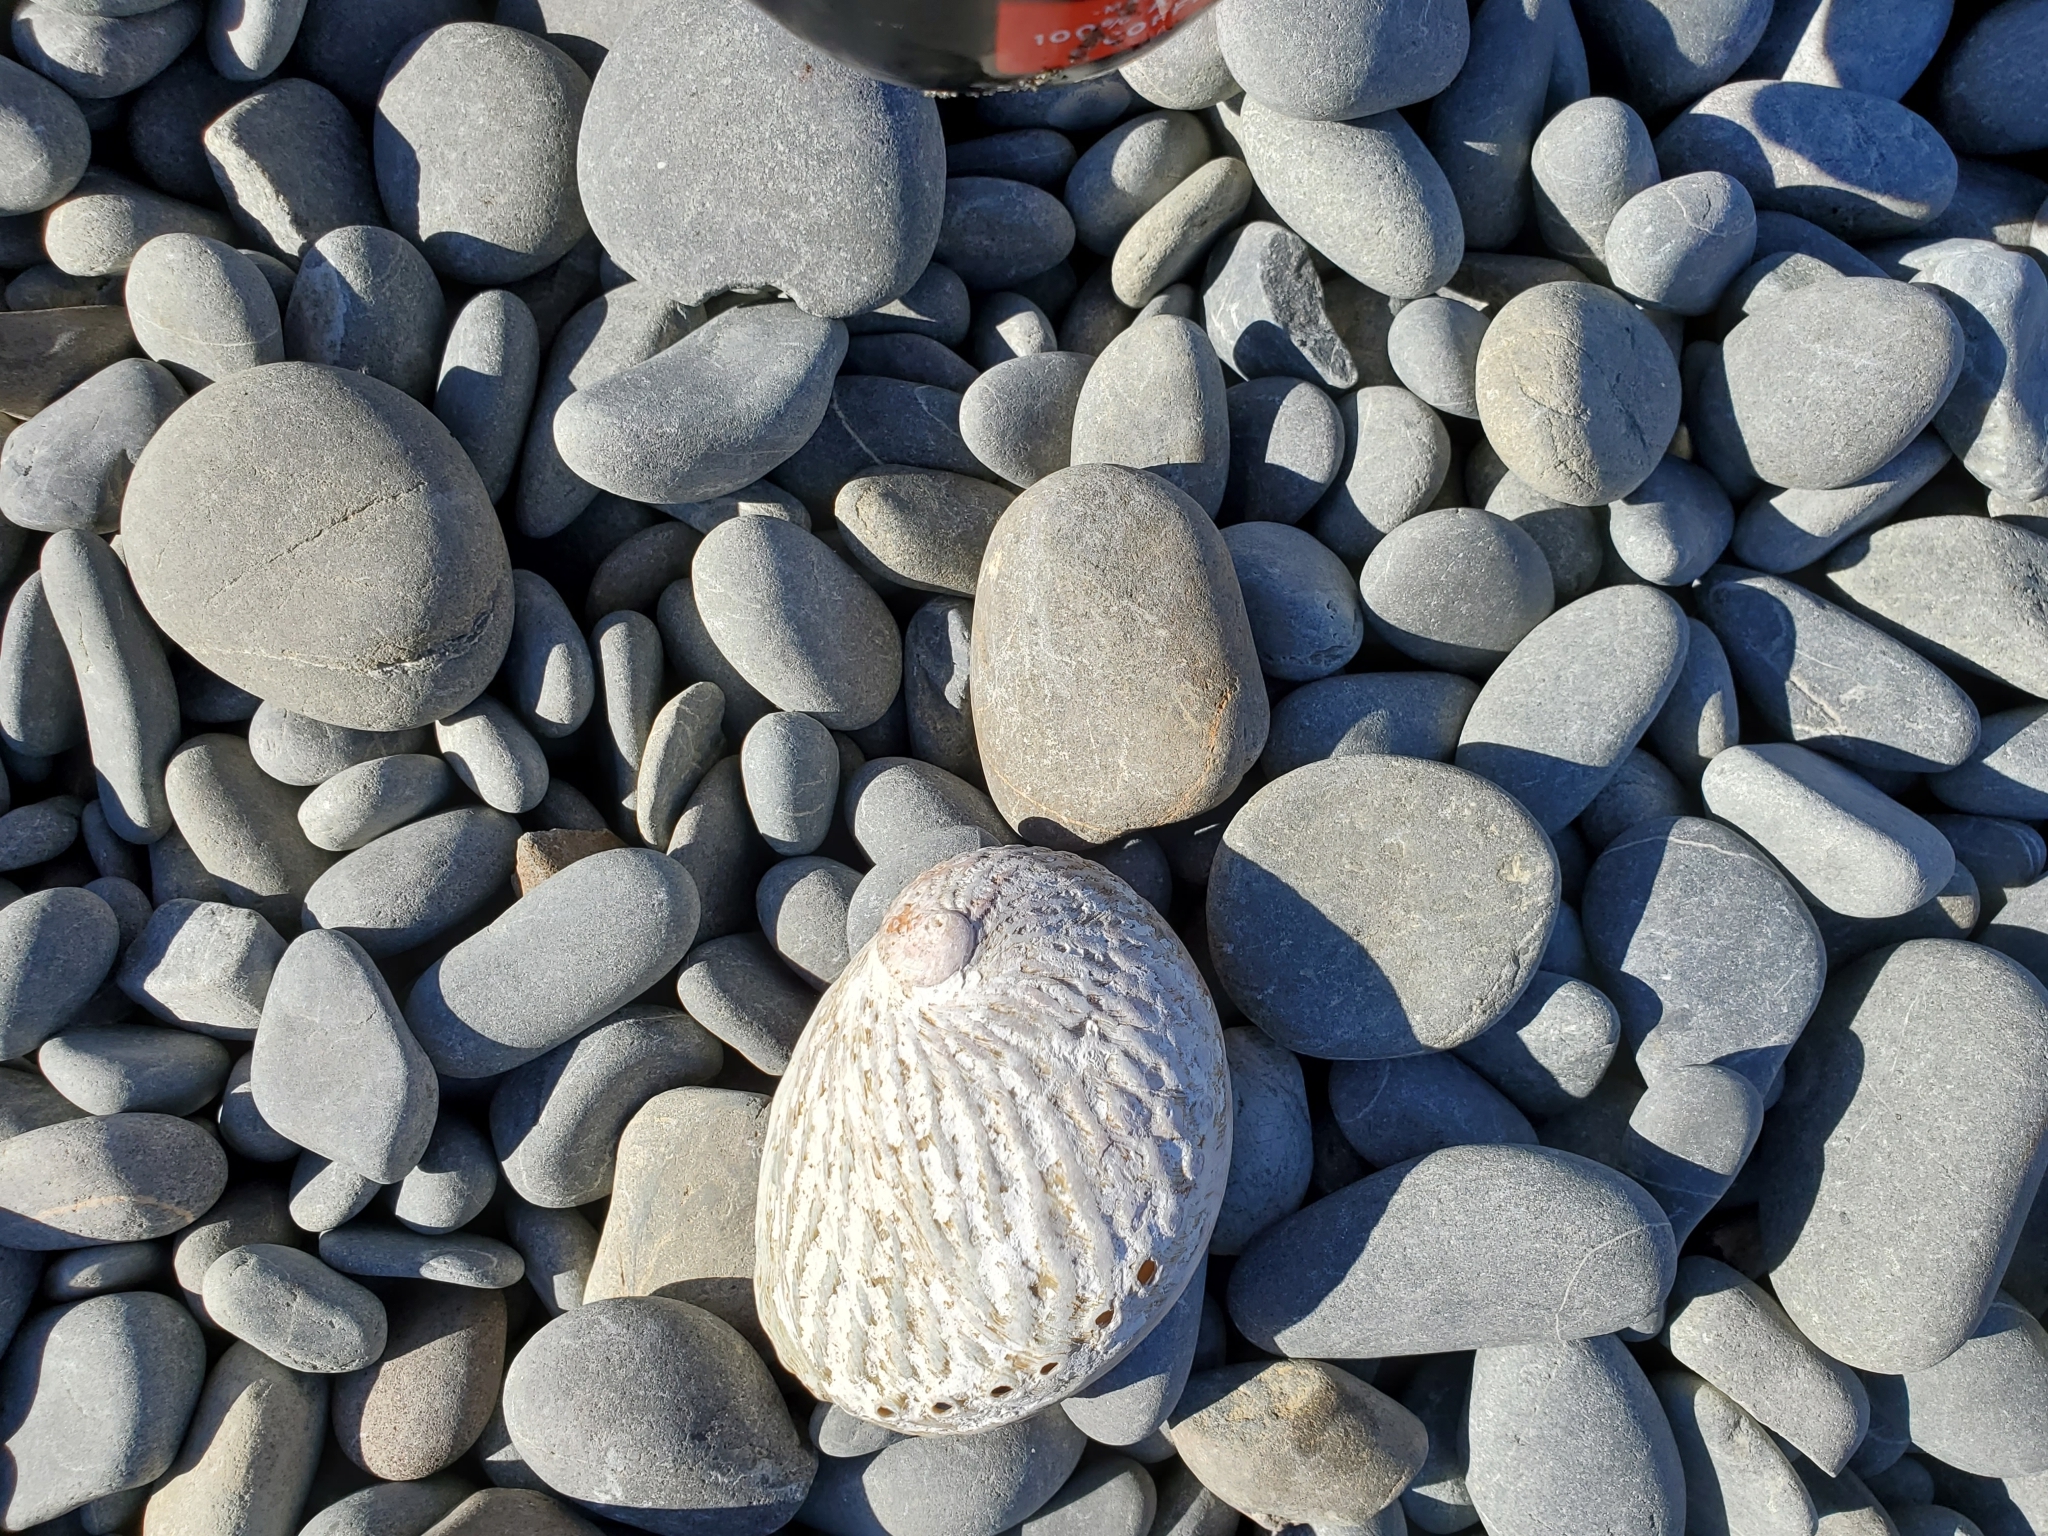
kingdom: Animalia
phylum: Mollusca
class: Gastropoda
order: Lepetellida
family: Haliotidae
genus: Haliotis
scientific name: Haliotis australis
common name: Silver abalone
